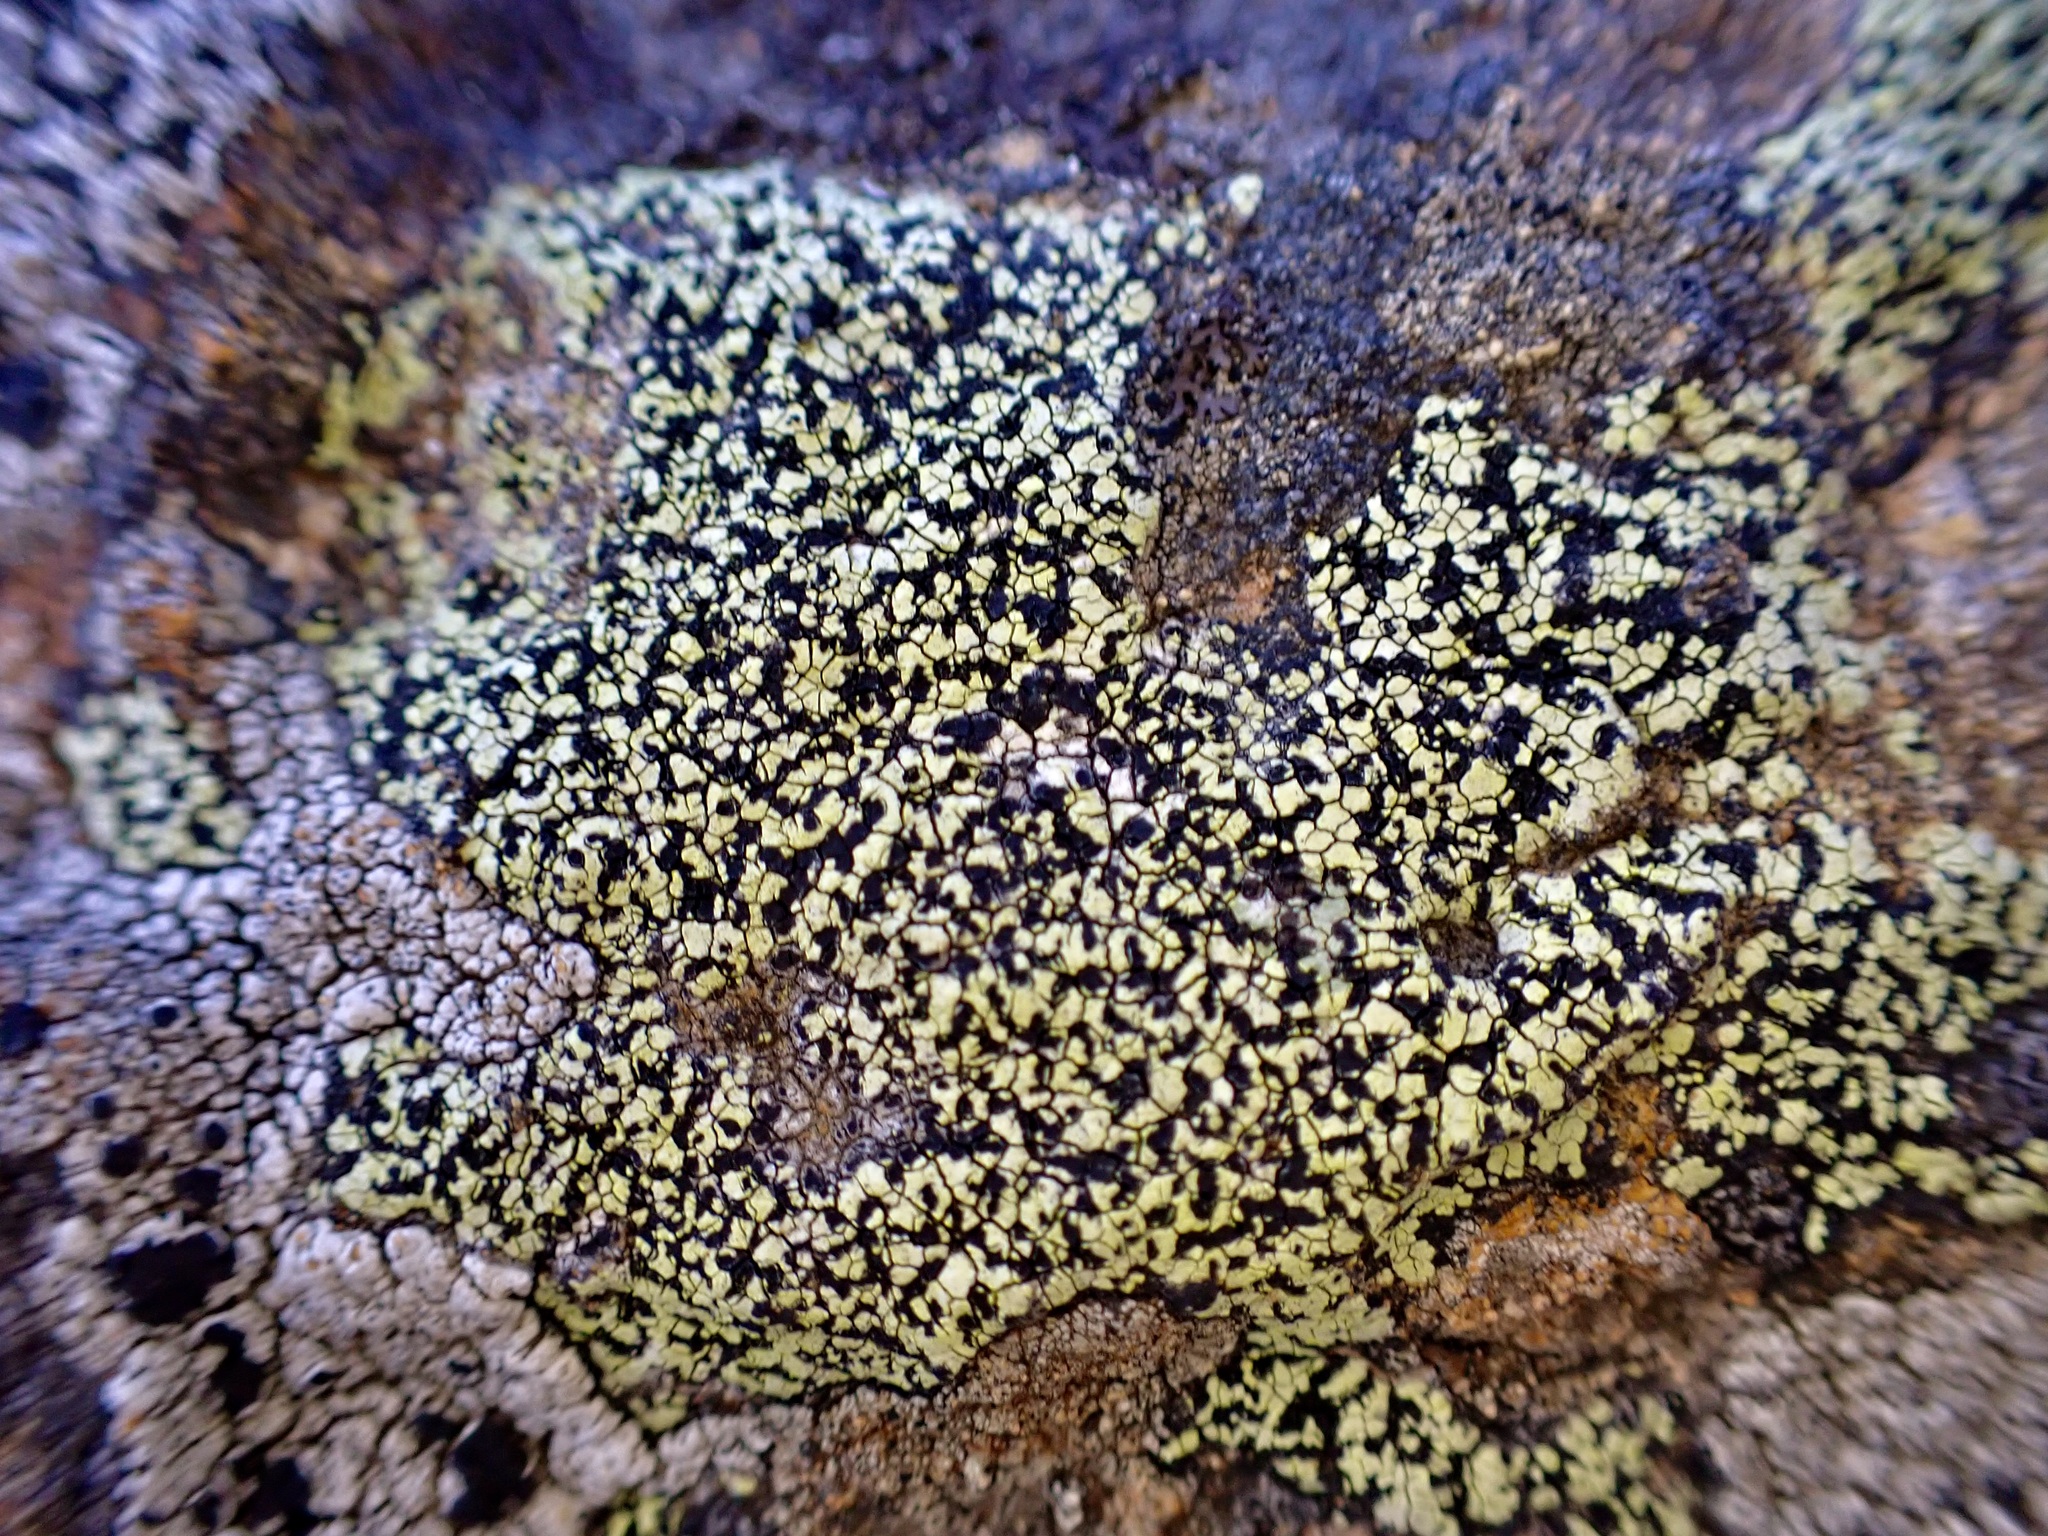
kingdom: Fungi
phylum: Ascomycota
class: Lecanoromycetes
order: Rhizocarpales
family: Rhizocarpaceae
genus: Rhizocarpon
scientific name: Rhizocarpon geographicum
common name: Yellow map lichen
